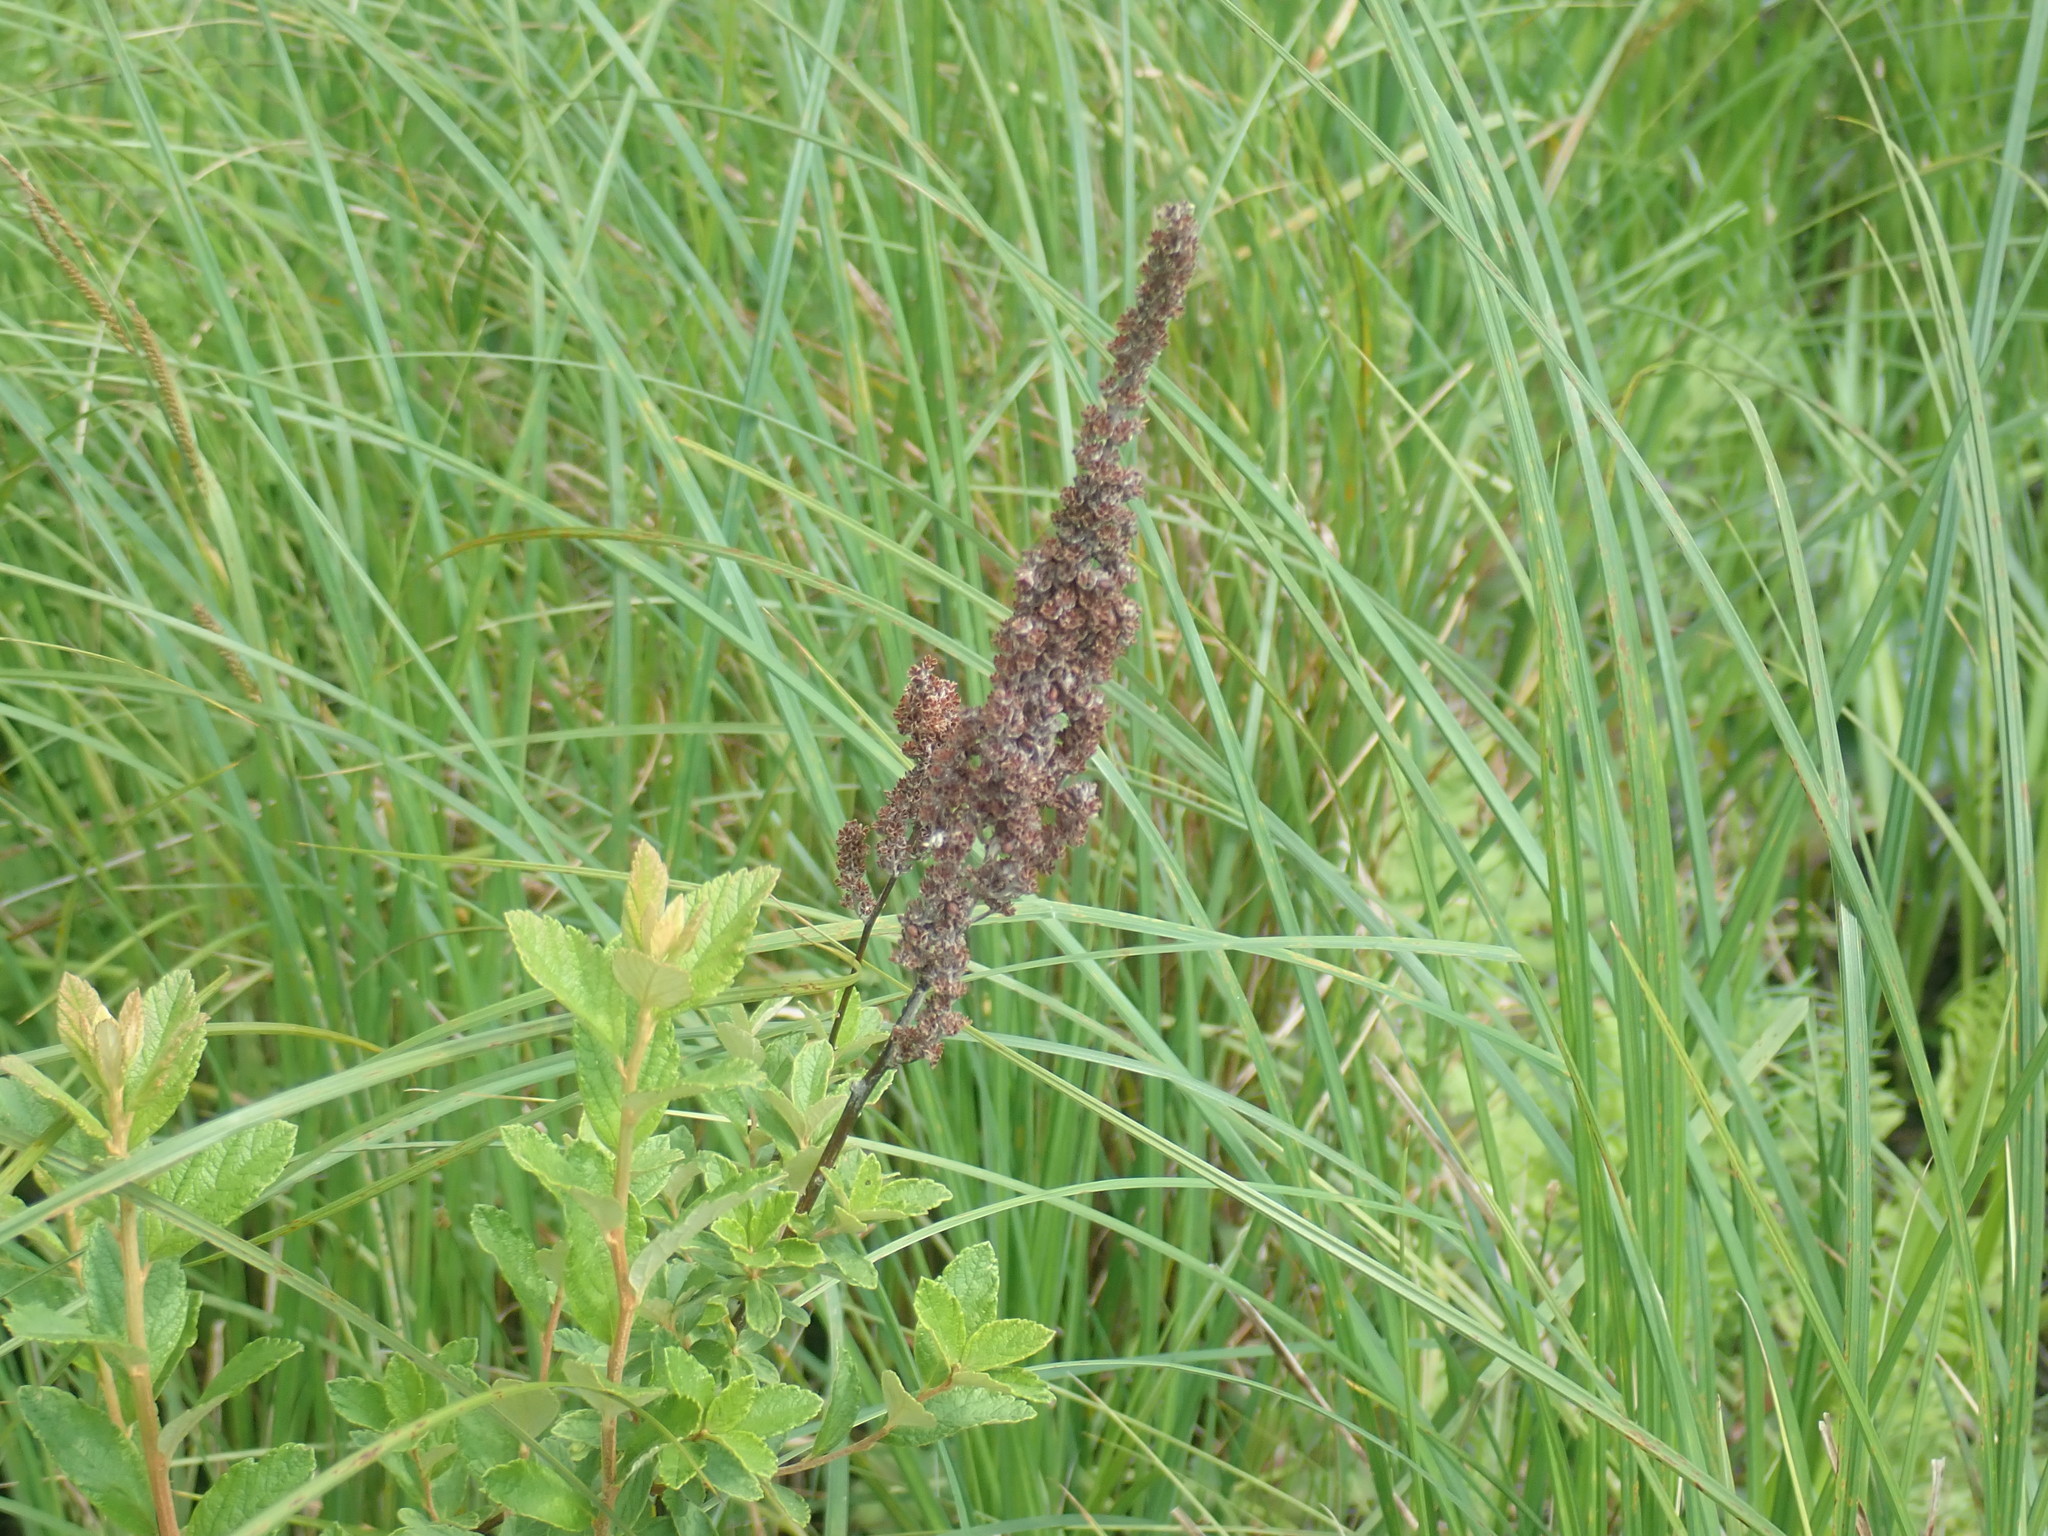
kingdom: Plantae
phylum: Tracheophyta
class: Magnoliopsida
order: Rosales
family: Rosaceae
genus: Spiraea
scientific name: Spiraea tomentosa
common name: Hardhack
